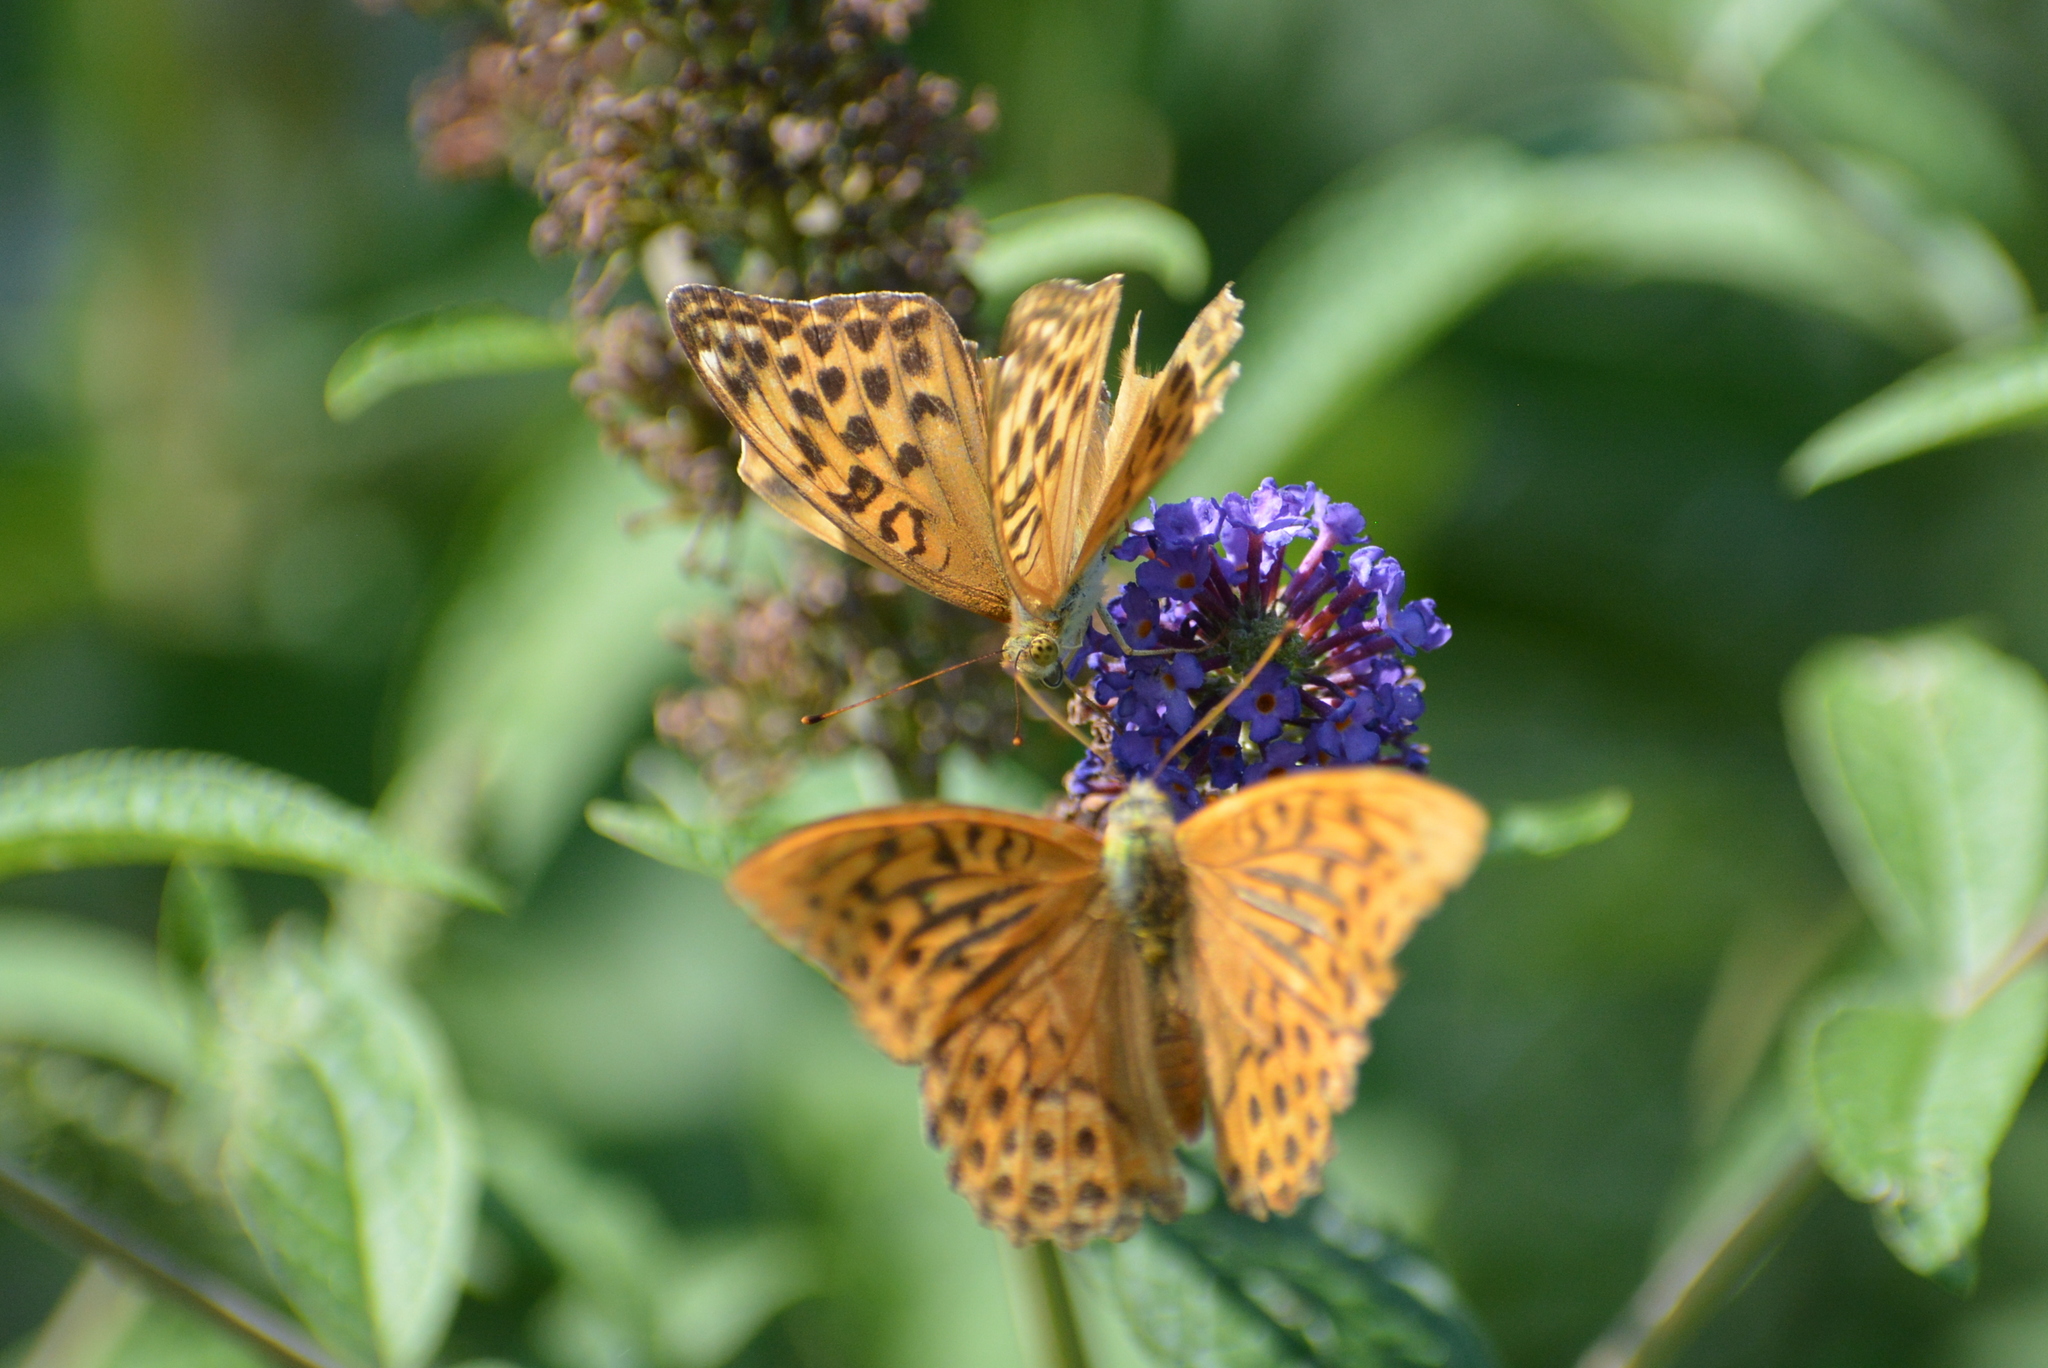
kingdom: Animalia
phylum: Arthropoda
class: Insecta
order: Lepidoptera
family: Nymphalidae
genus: Argynnis
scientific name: Argynnis paphia
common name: Silver-washed fritillary
